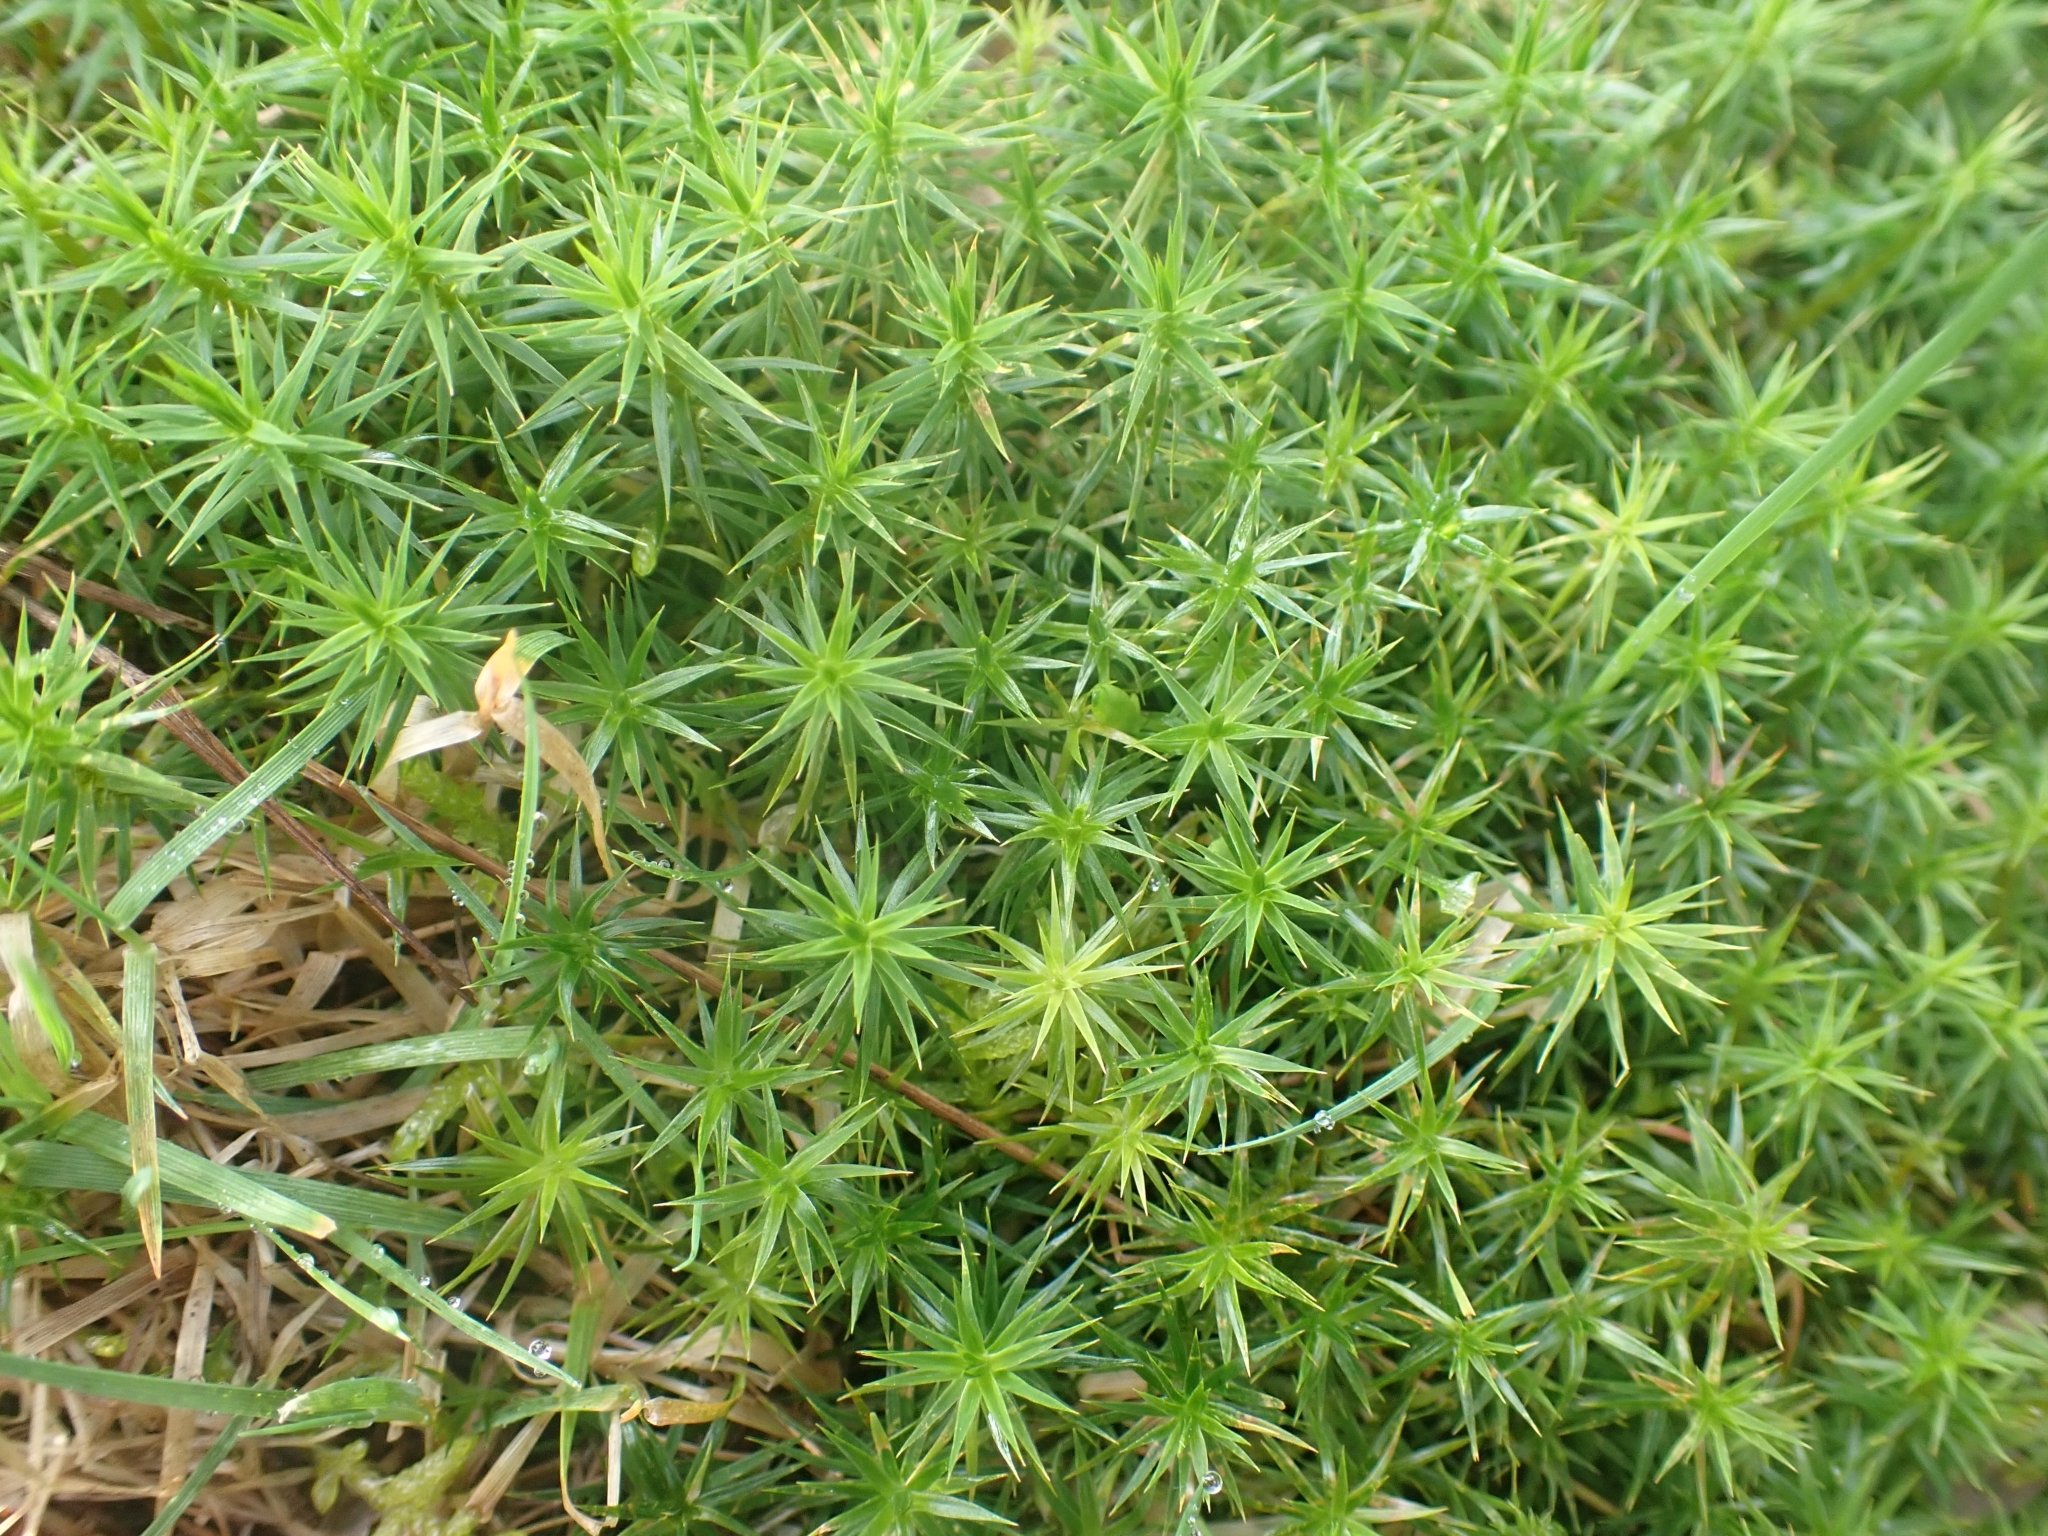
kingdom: Plantae
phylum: Bryophyta
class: Polytrichopsida
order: Polytrichales
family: Polytrichaceae
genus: Polytrichum
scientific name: Polytrichum formosum
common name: Bank haircap moss
